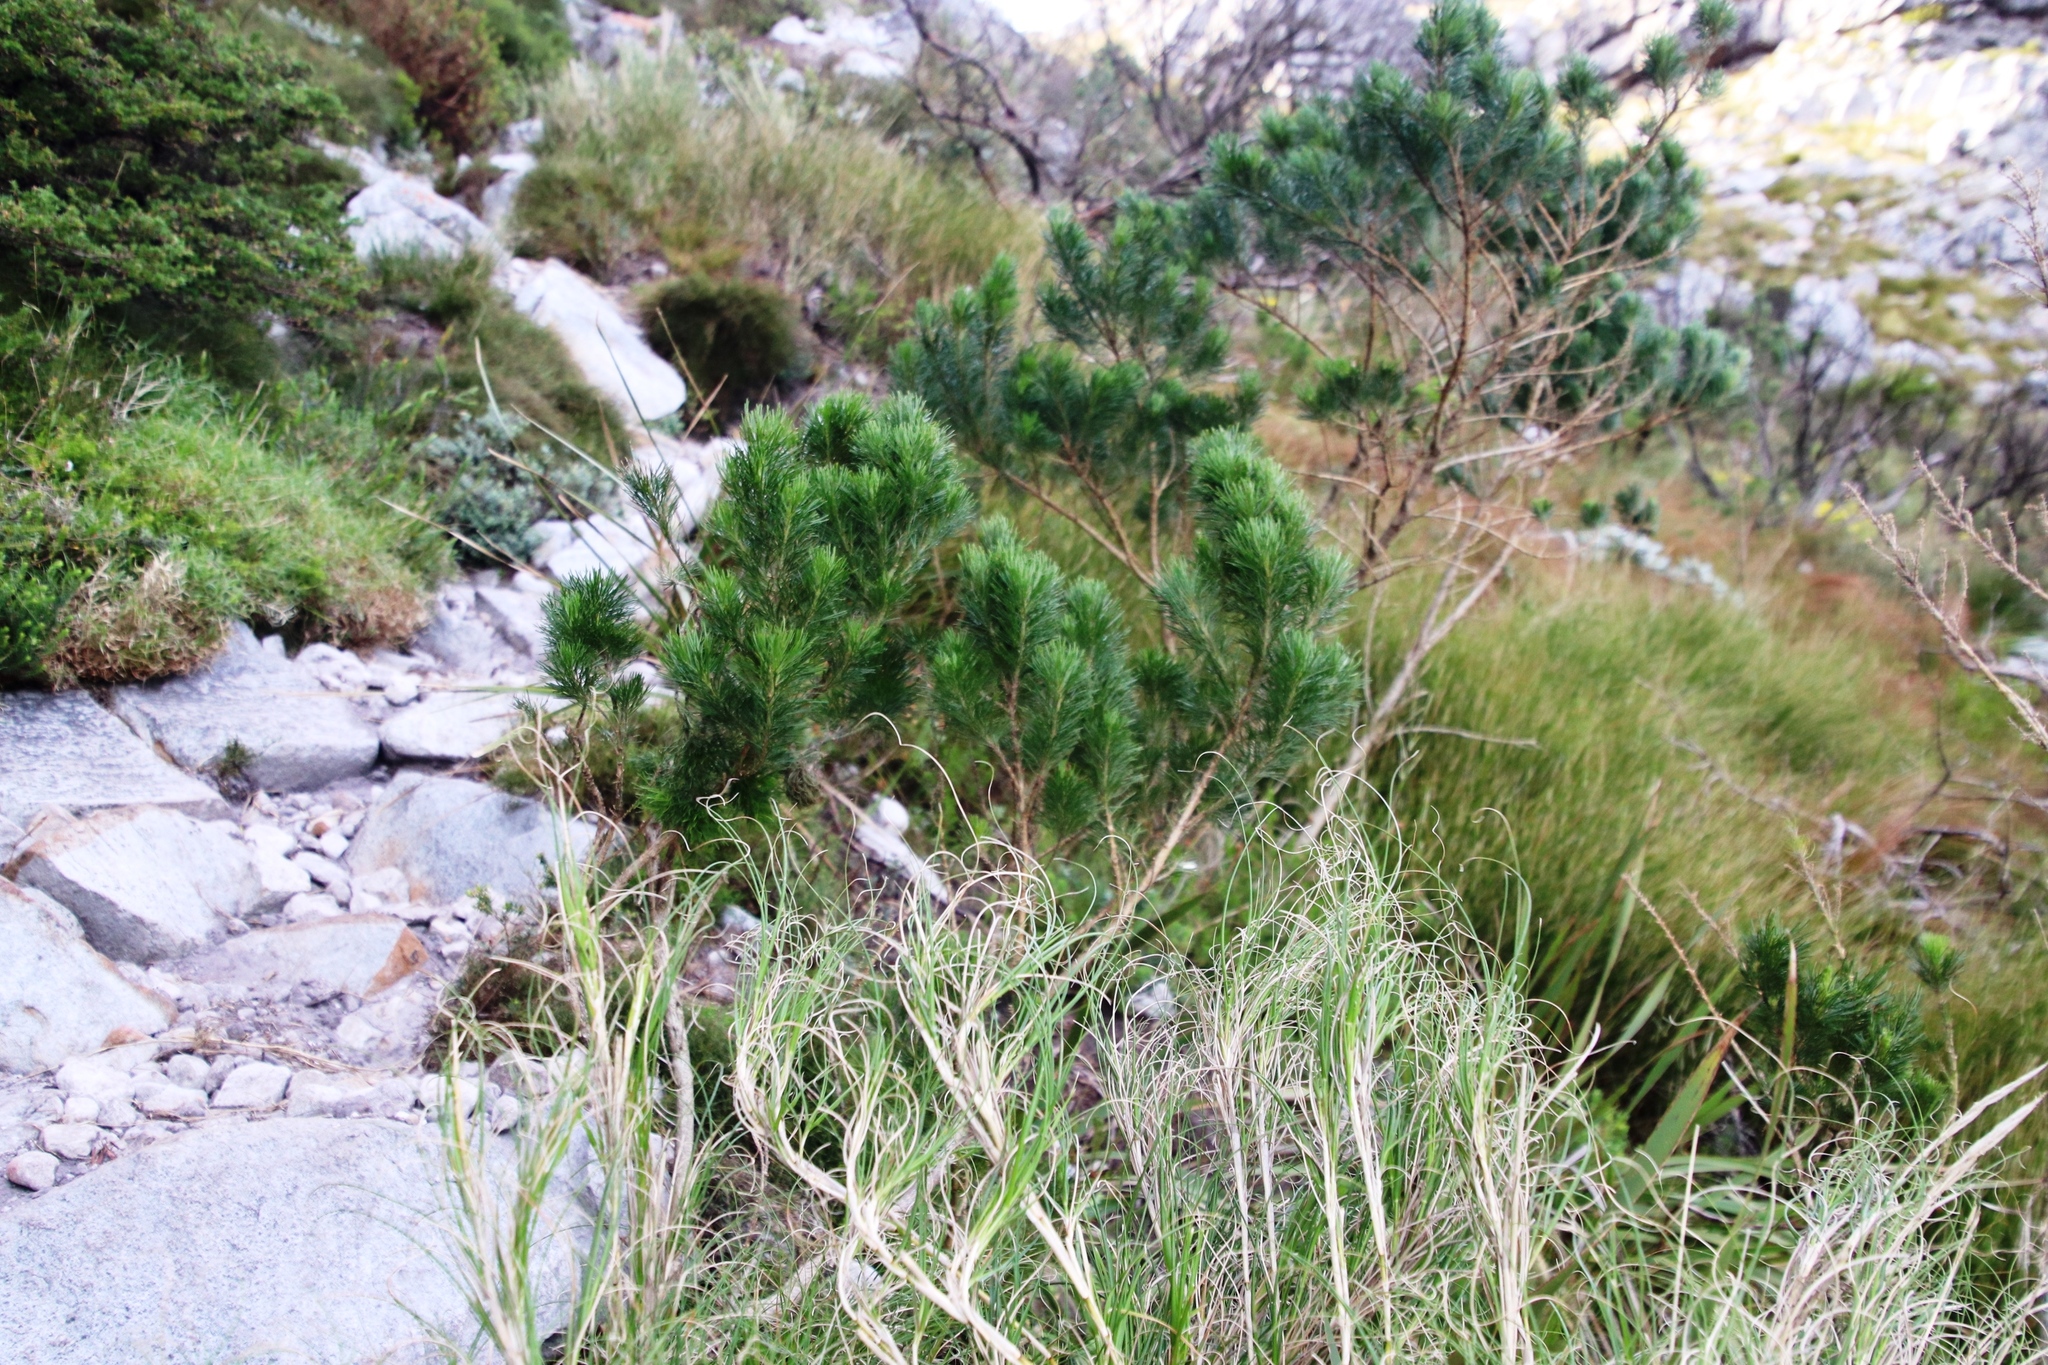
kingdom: Plantae
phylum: Tracheophyta
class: Magnoliopsida
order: Fabales
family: Fabaceae
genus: Psoralea
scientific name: Psoralea pinnata
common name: African scurfpea
